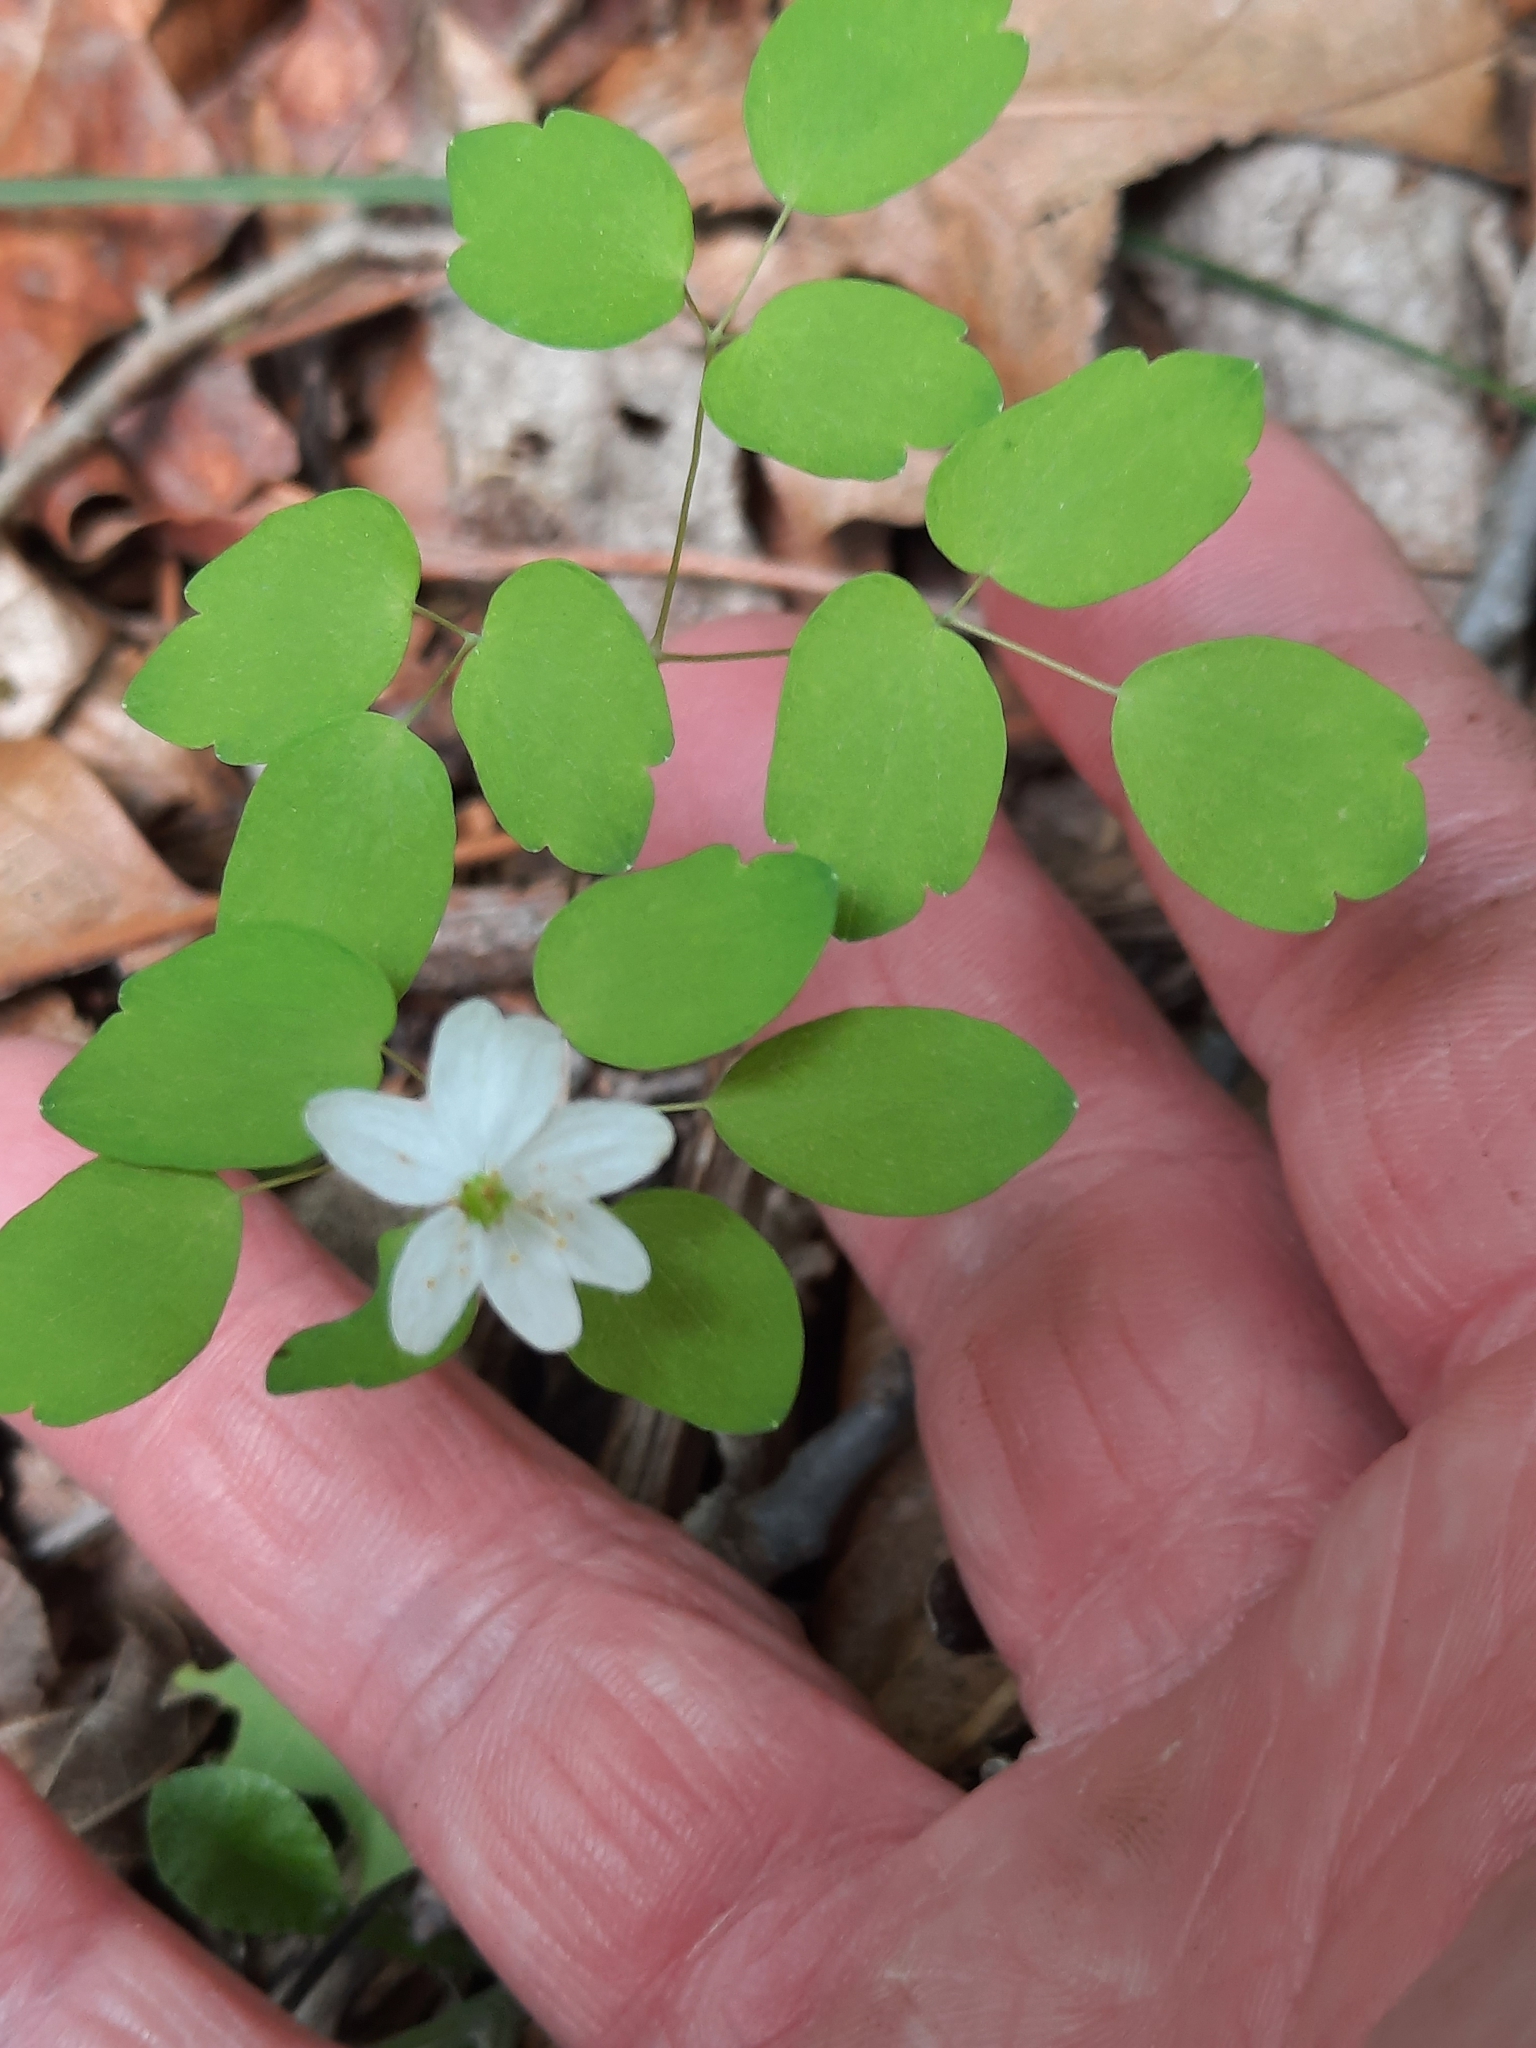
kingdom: Plantae
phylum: Tracheophyta
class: Magnoliopsida
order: Ranunculales
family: Ranunculaceae
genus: Thalictrum
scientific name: Thalictrum thalictroides
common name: Rue-anemone
